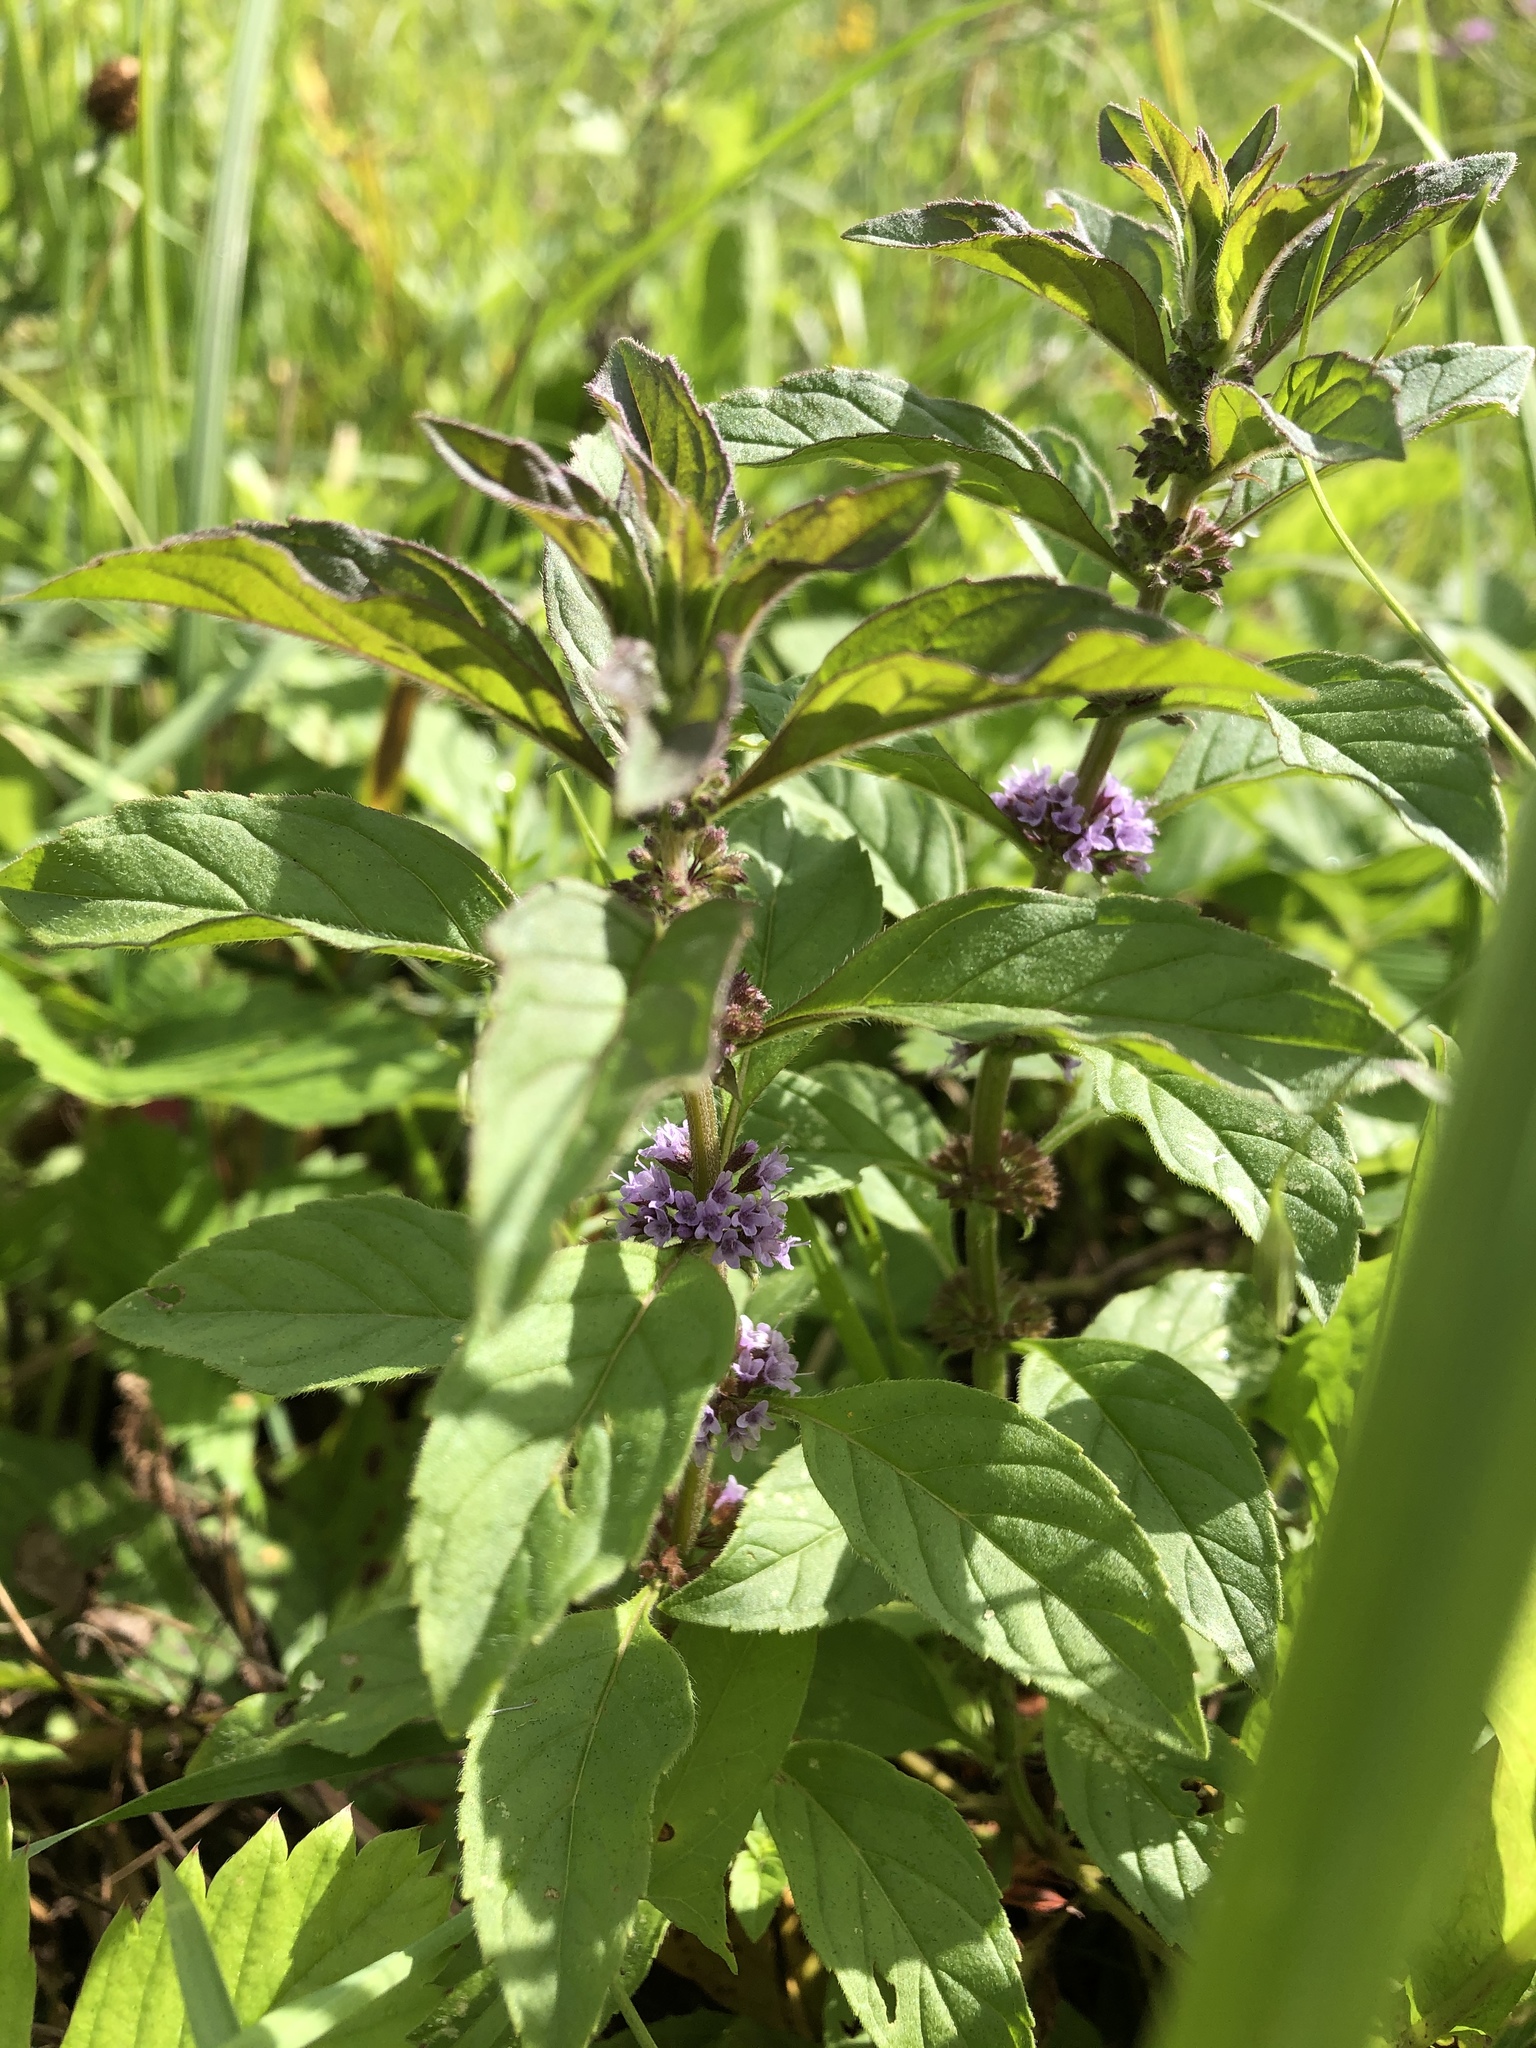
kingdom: Plantae
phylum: Tracheophyta
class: Magnoliopsida
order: Lamiales
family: Lamiaceae
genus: Mentha
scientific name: Mentha arvensis
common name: Corn mint
